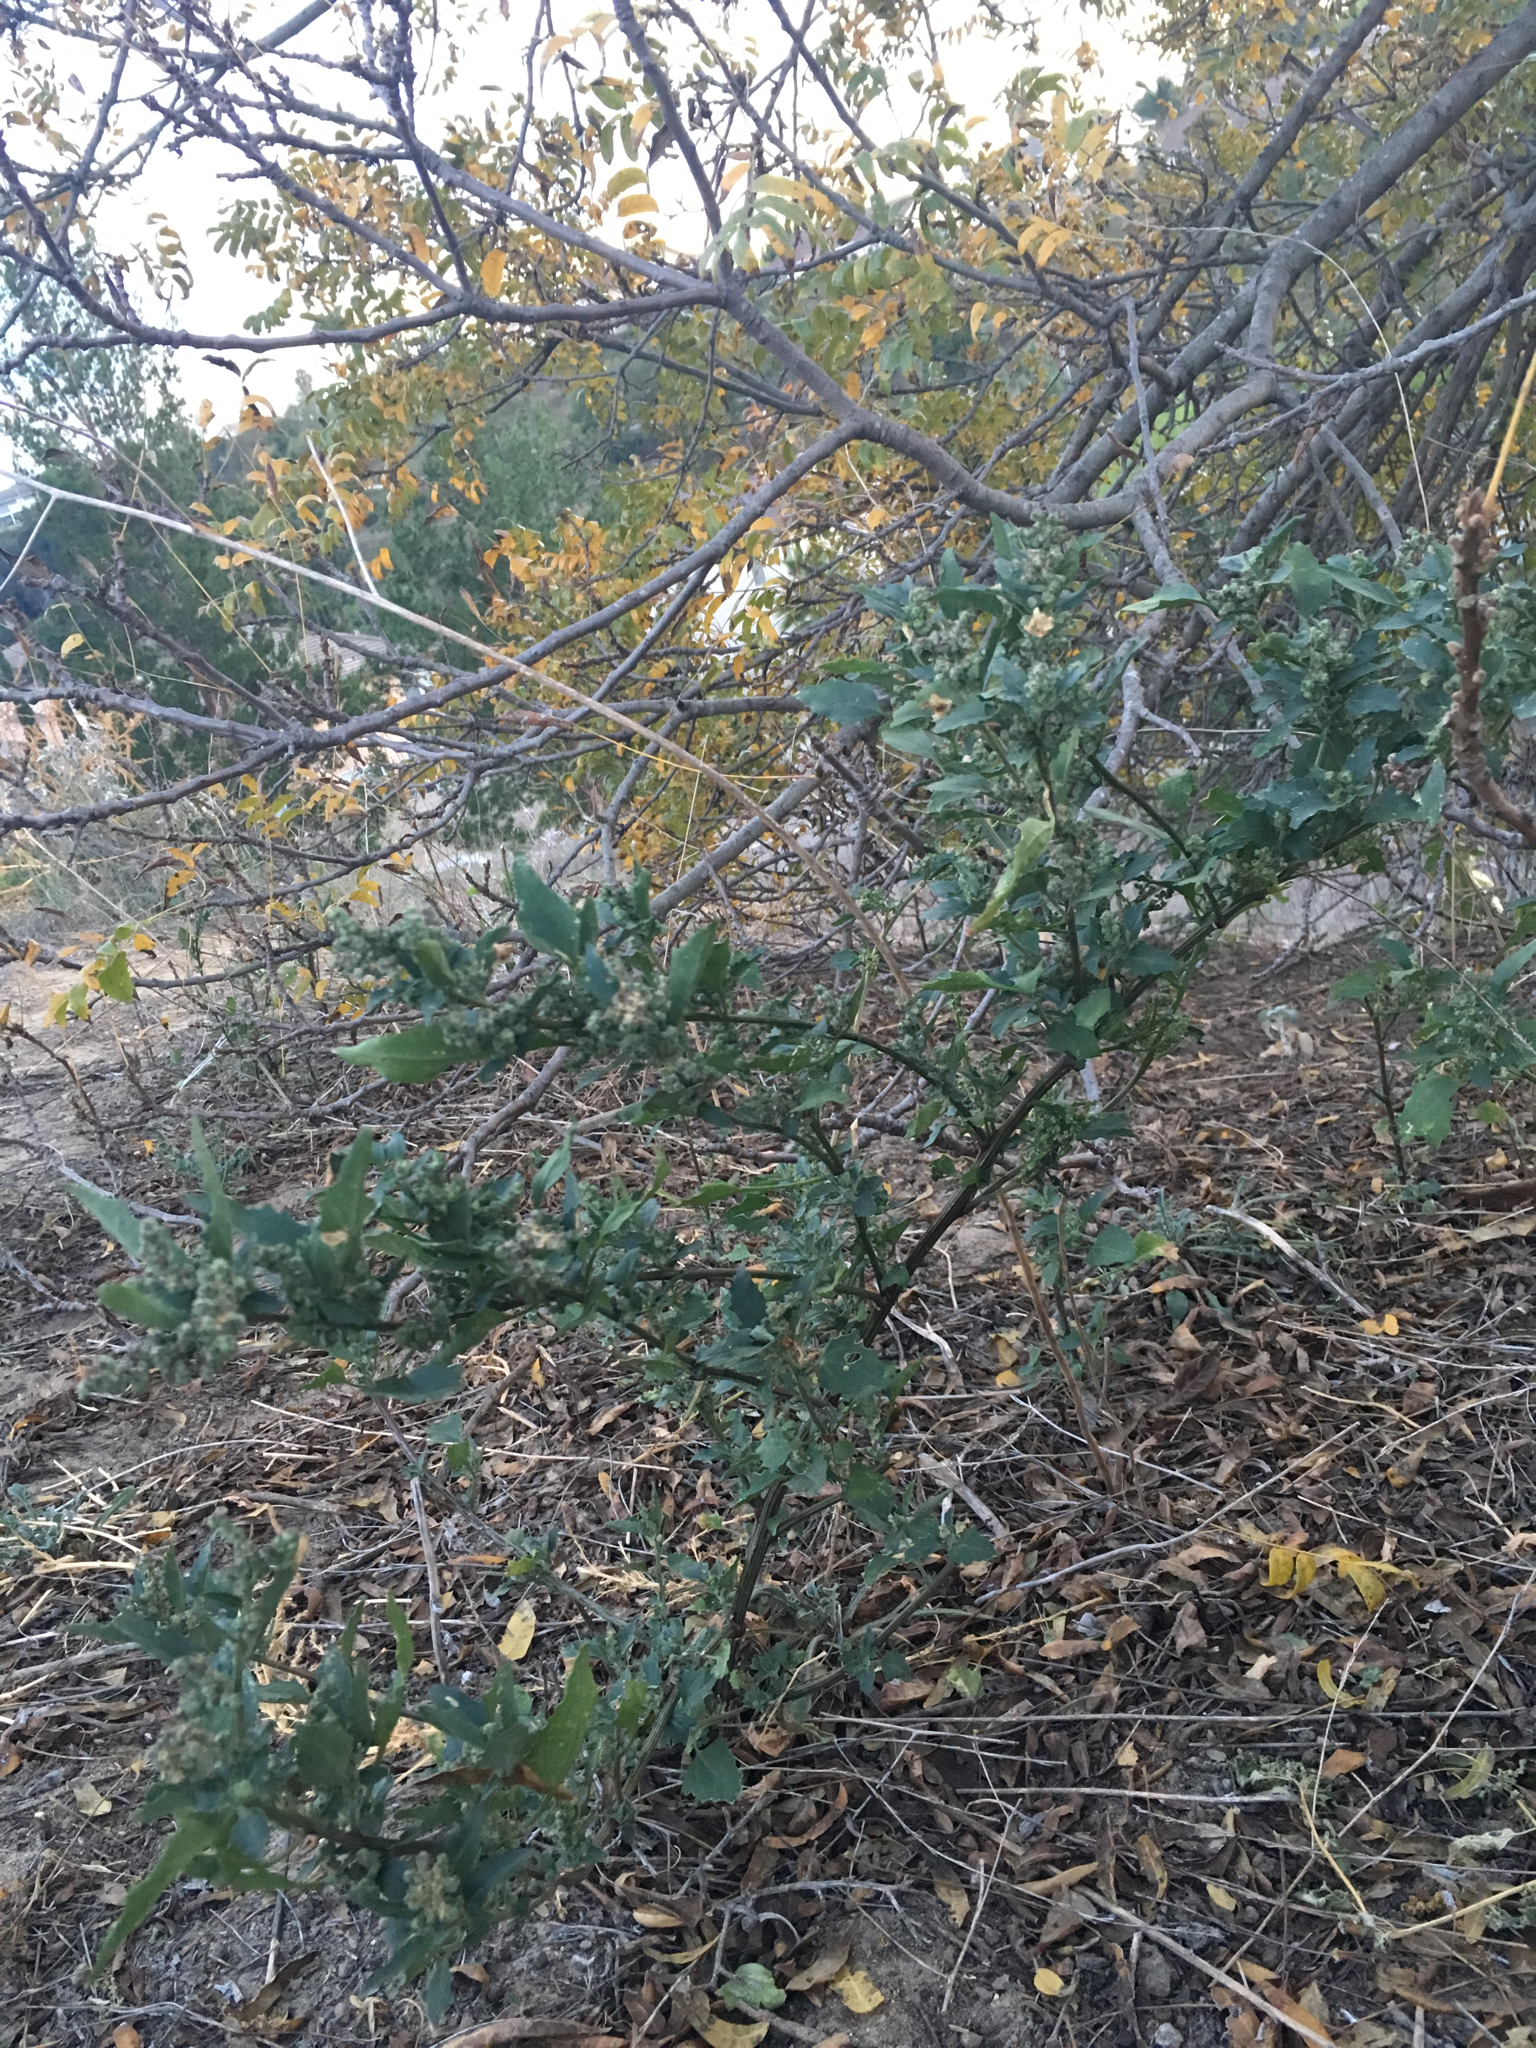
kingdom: Plantae
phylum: Tracheophyta
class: Magnoliopsida
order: Caryophyllales
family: Amaranthaceae
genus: Chenopodiastrum
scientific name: Chenopodiastrum murale
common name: Sowbane
